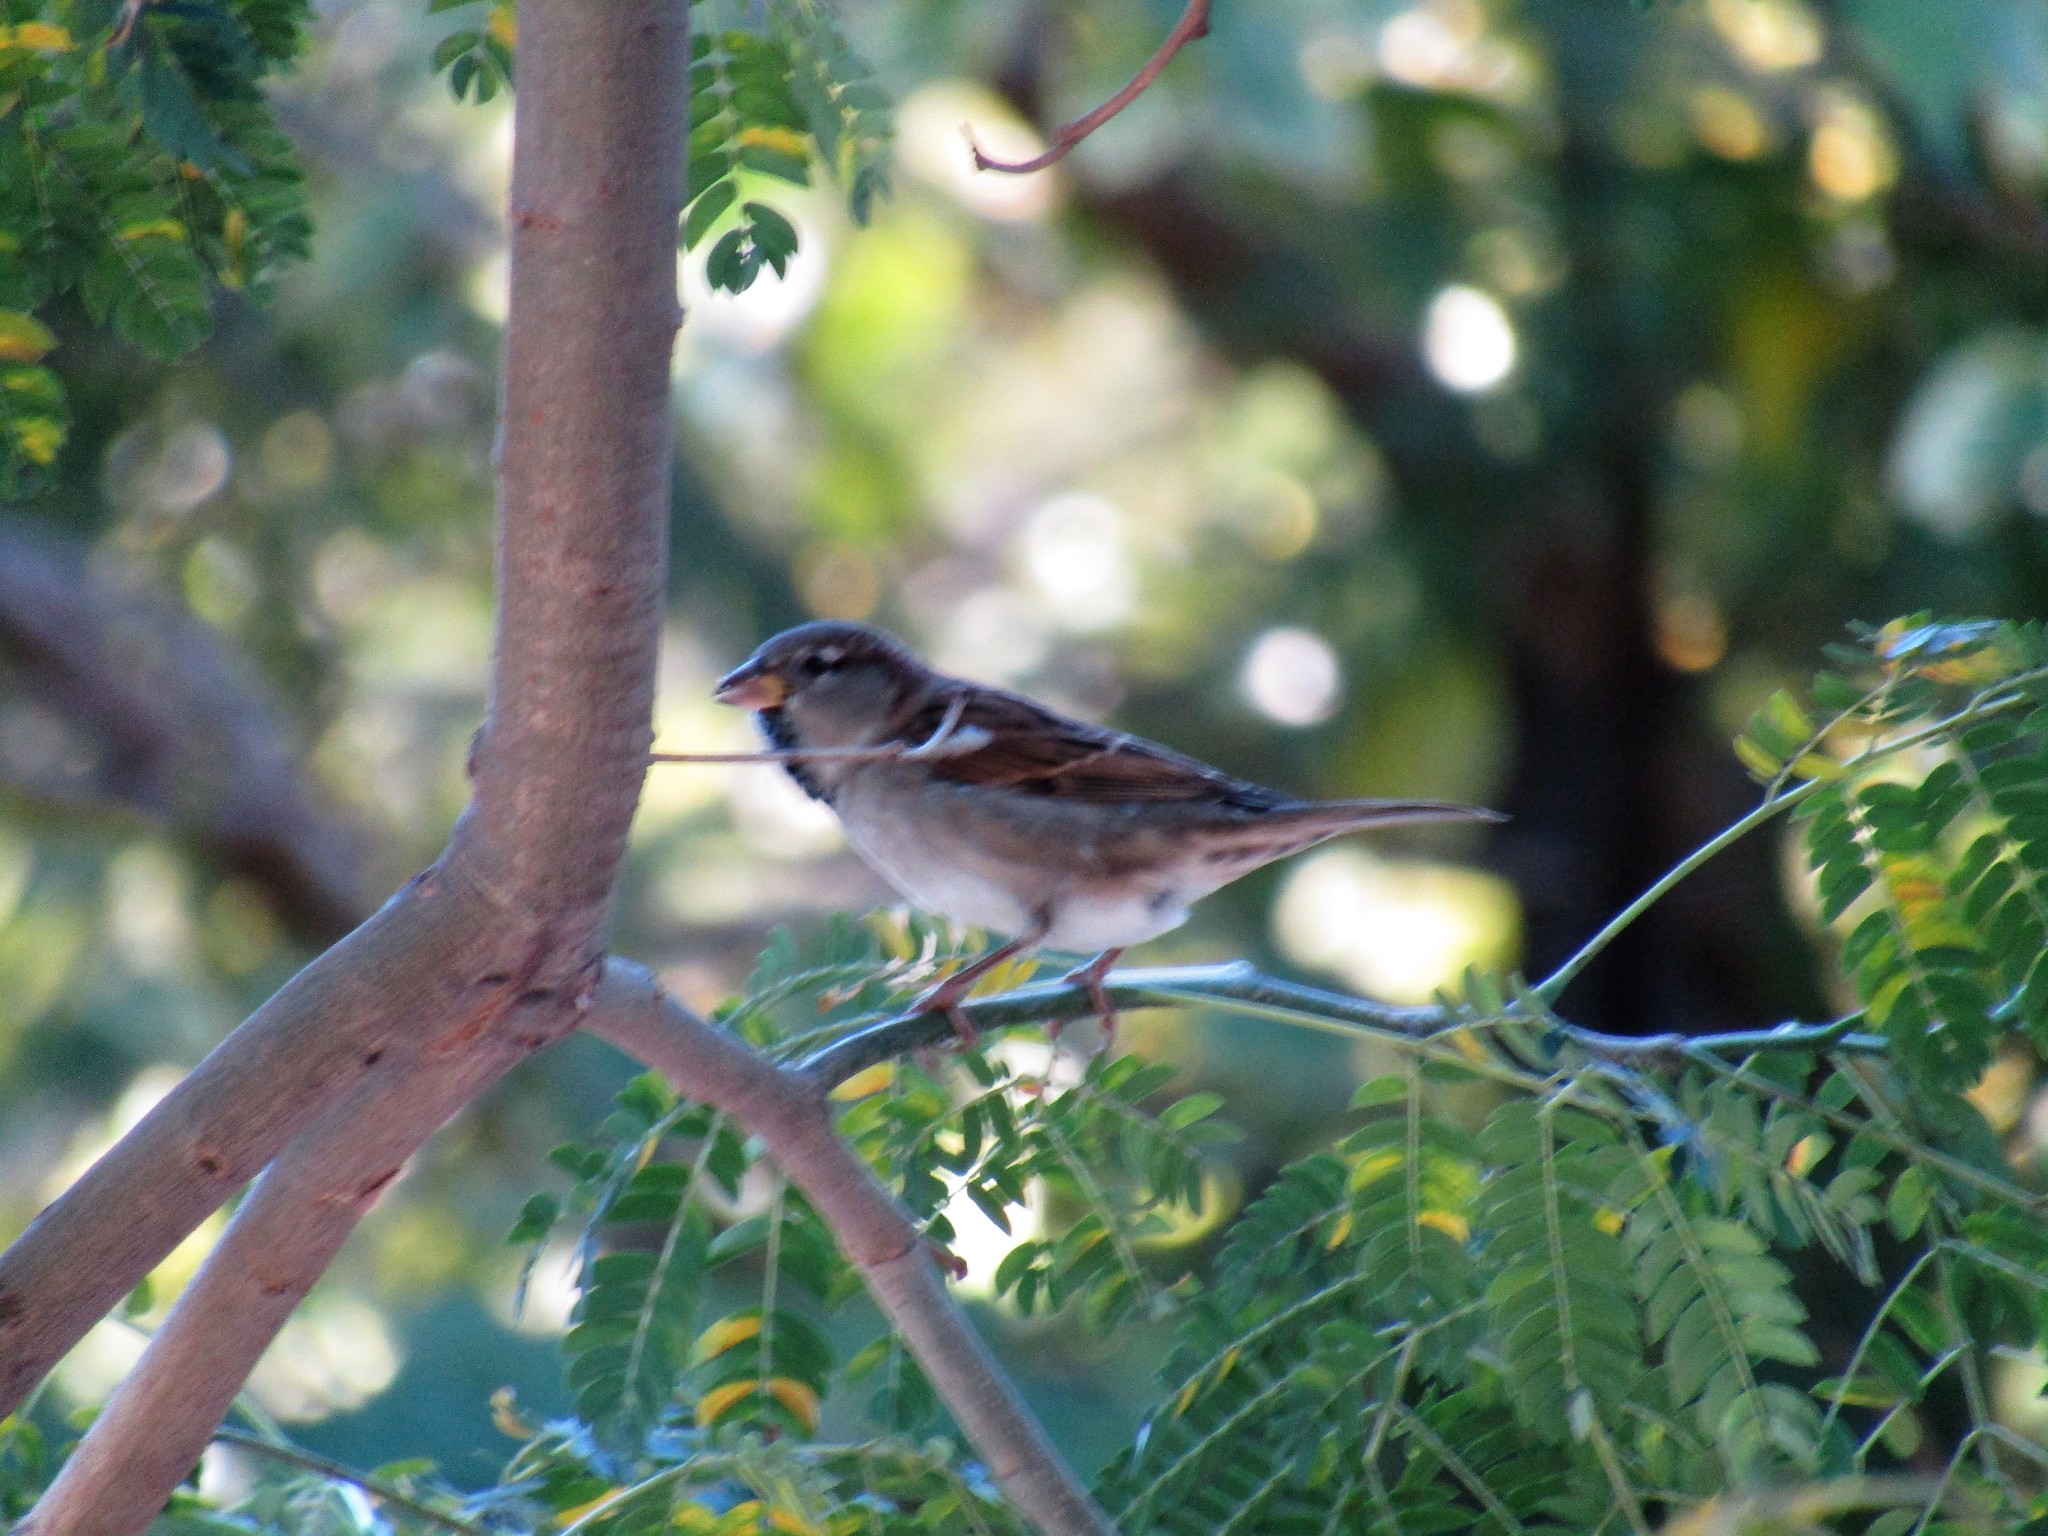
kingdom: Animalia
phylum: Chordata
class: Aves
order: Passeriformes
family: Passeridae
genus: Passer
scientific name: Passer domesticus
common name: House sparrow
